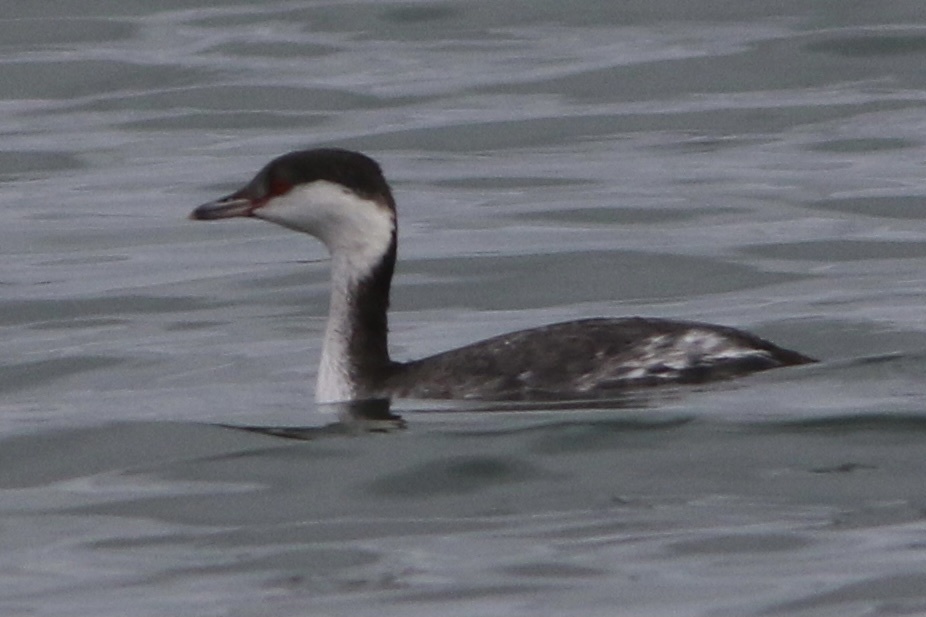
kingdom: Animalia
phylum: Chordata
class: Aves
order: Podicipediformes
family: Podicipedidae
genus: Podiceps
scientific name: Podiceps auritus
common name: Horned grebe
